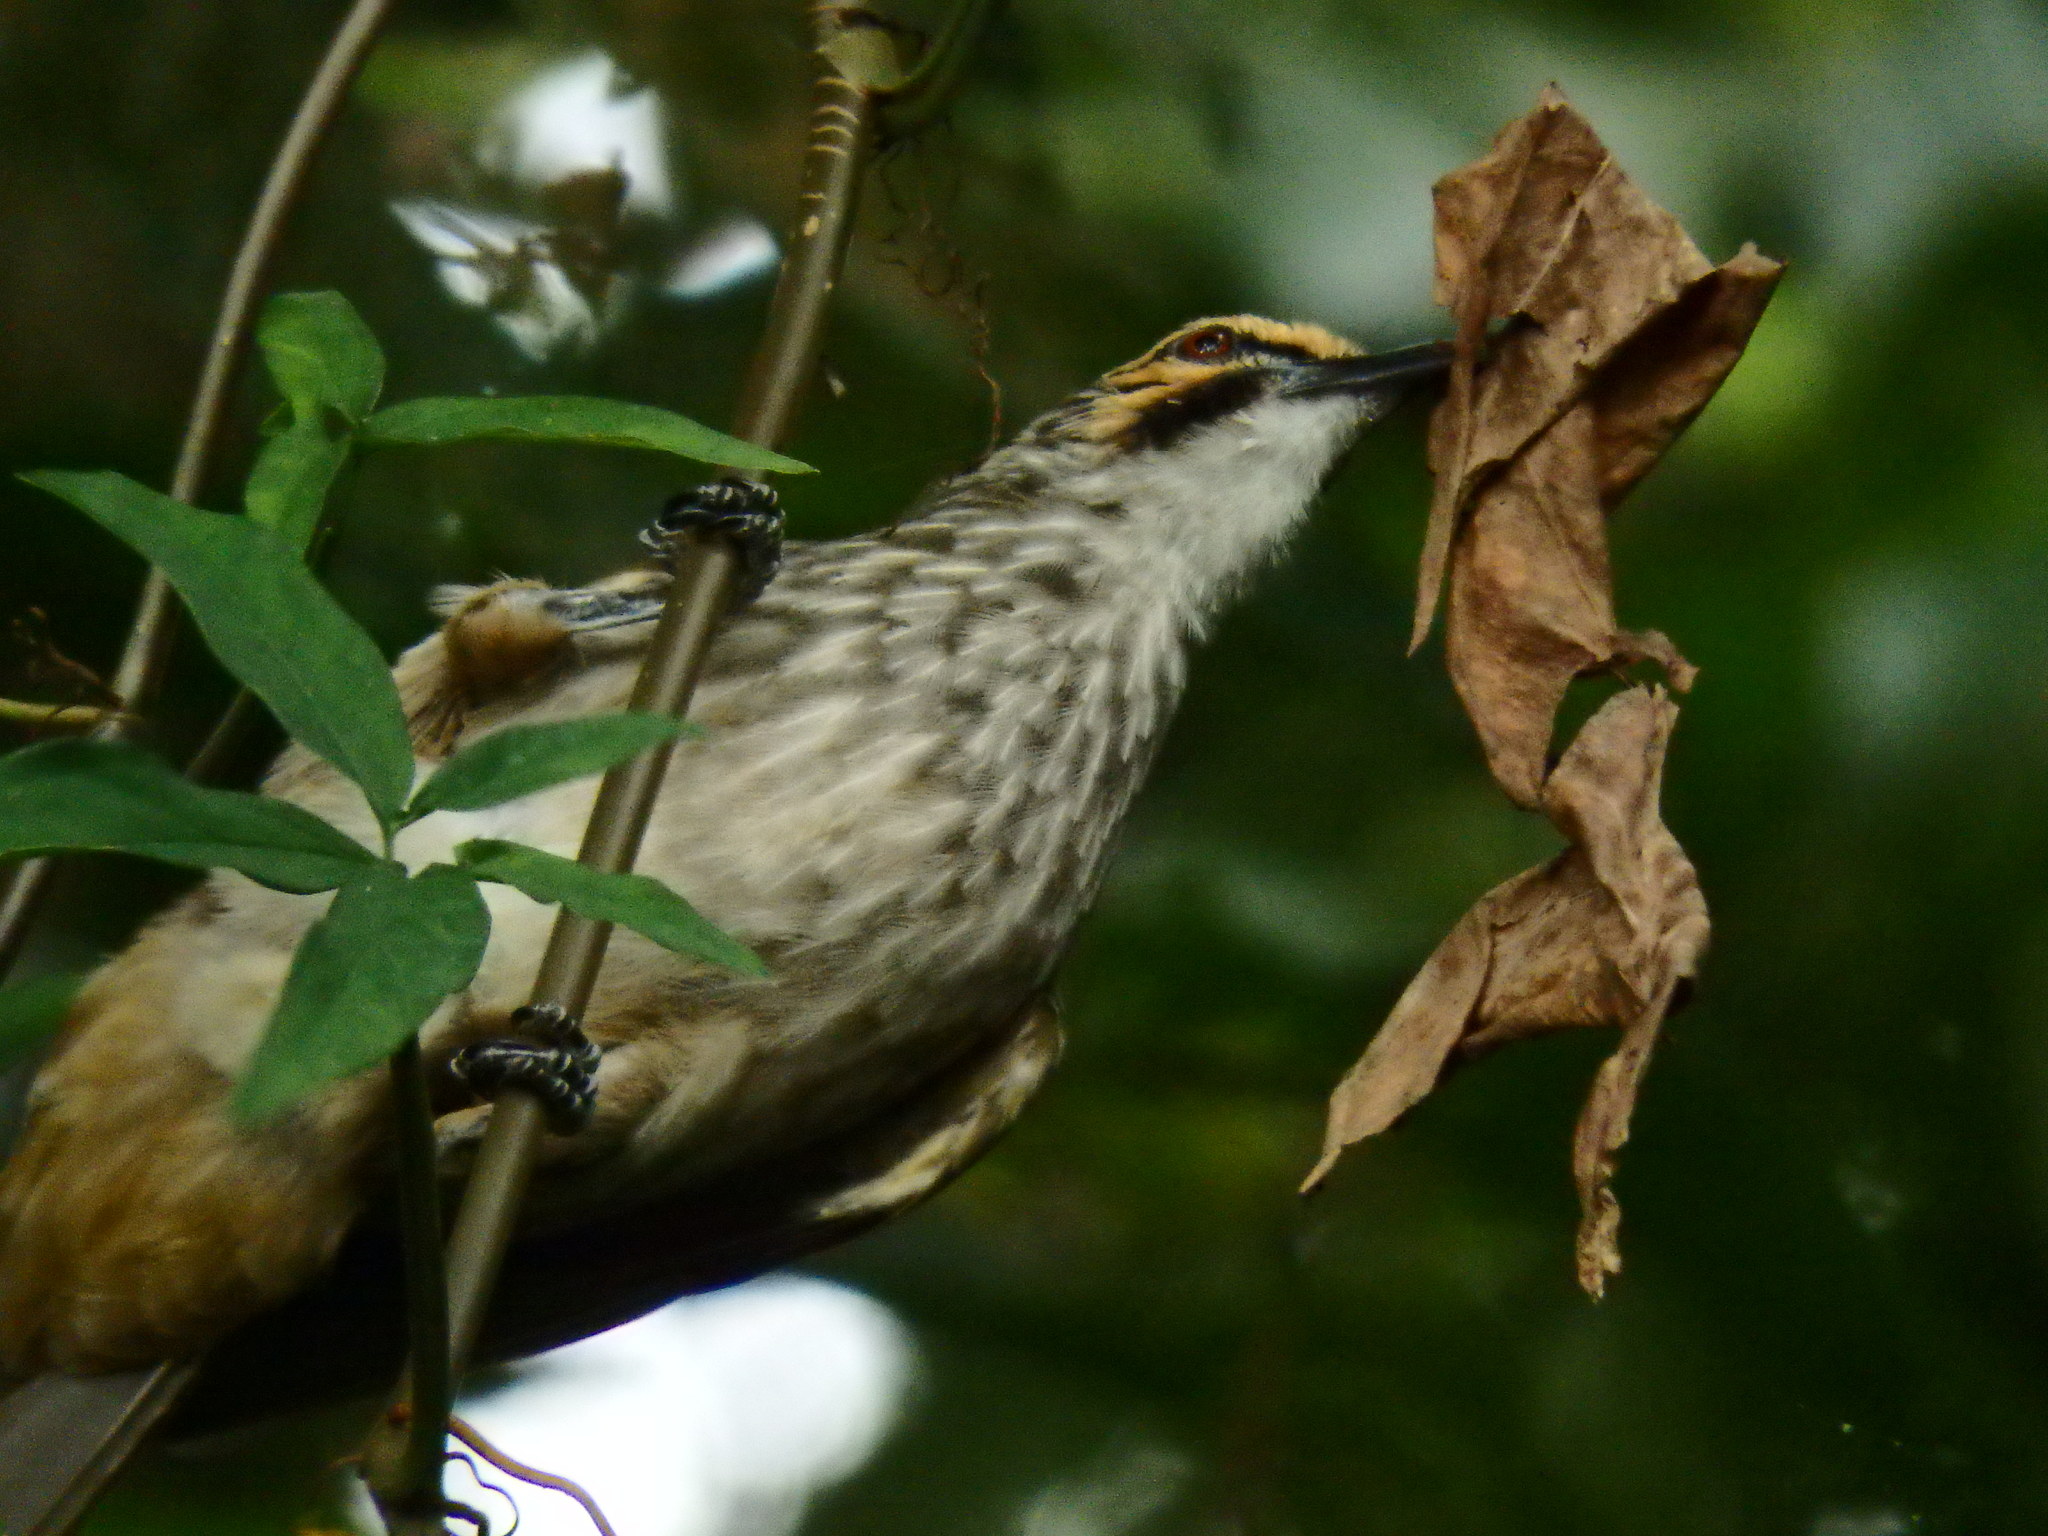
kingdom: Animalia
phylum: Chordata
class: Aves
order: Passeriformes
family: Pycnonotidae
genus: Pycnonotus
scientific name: Pycnonotus zeylanicus
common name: Straw-headed bulbul
